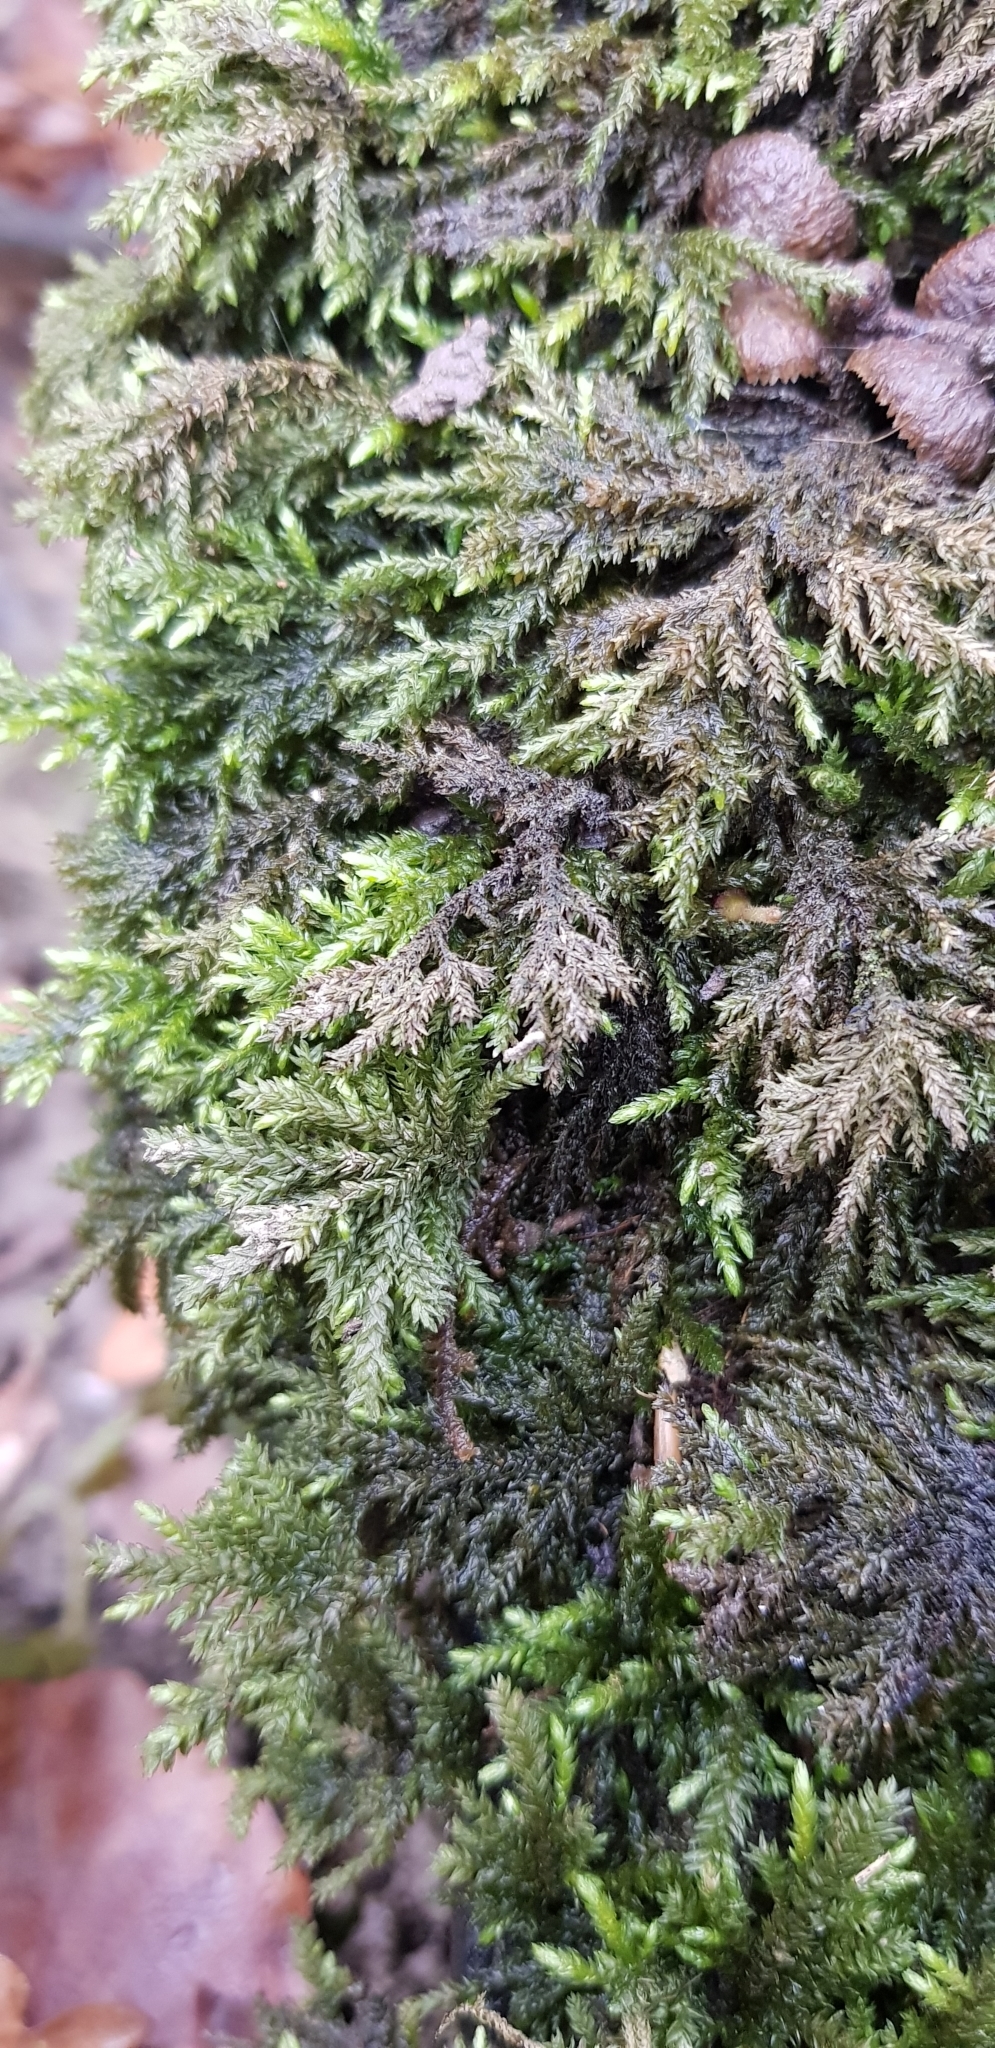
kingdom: Plantae
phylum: Bryophyta
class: Bryopsida
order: Hypnales
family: Neckeraceae
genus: Thamnobryum
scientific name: Thamnobryum alopecurum
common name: Fox-tail feather-moss
